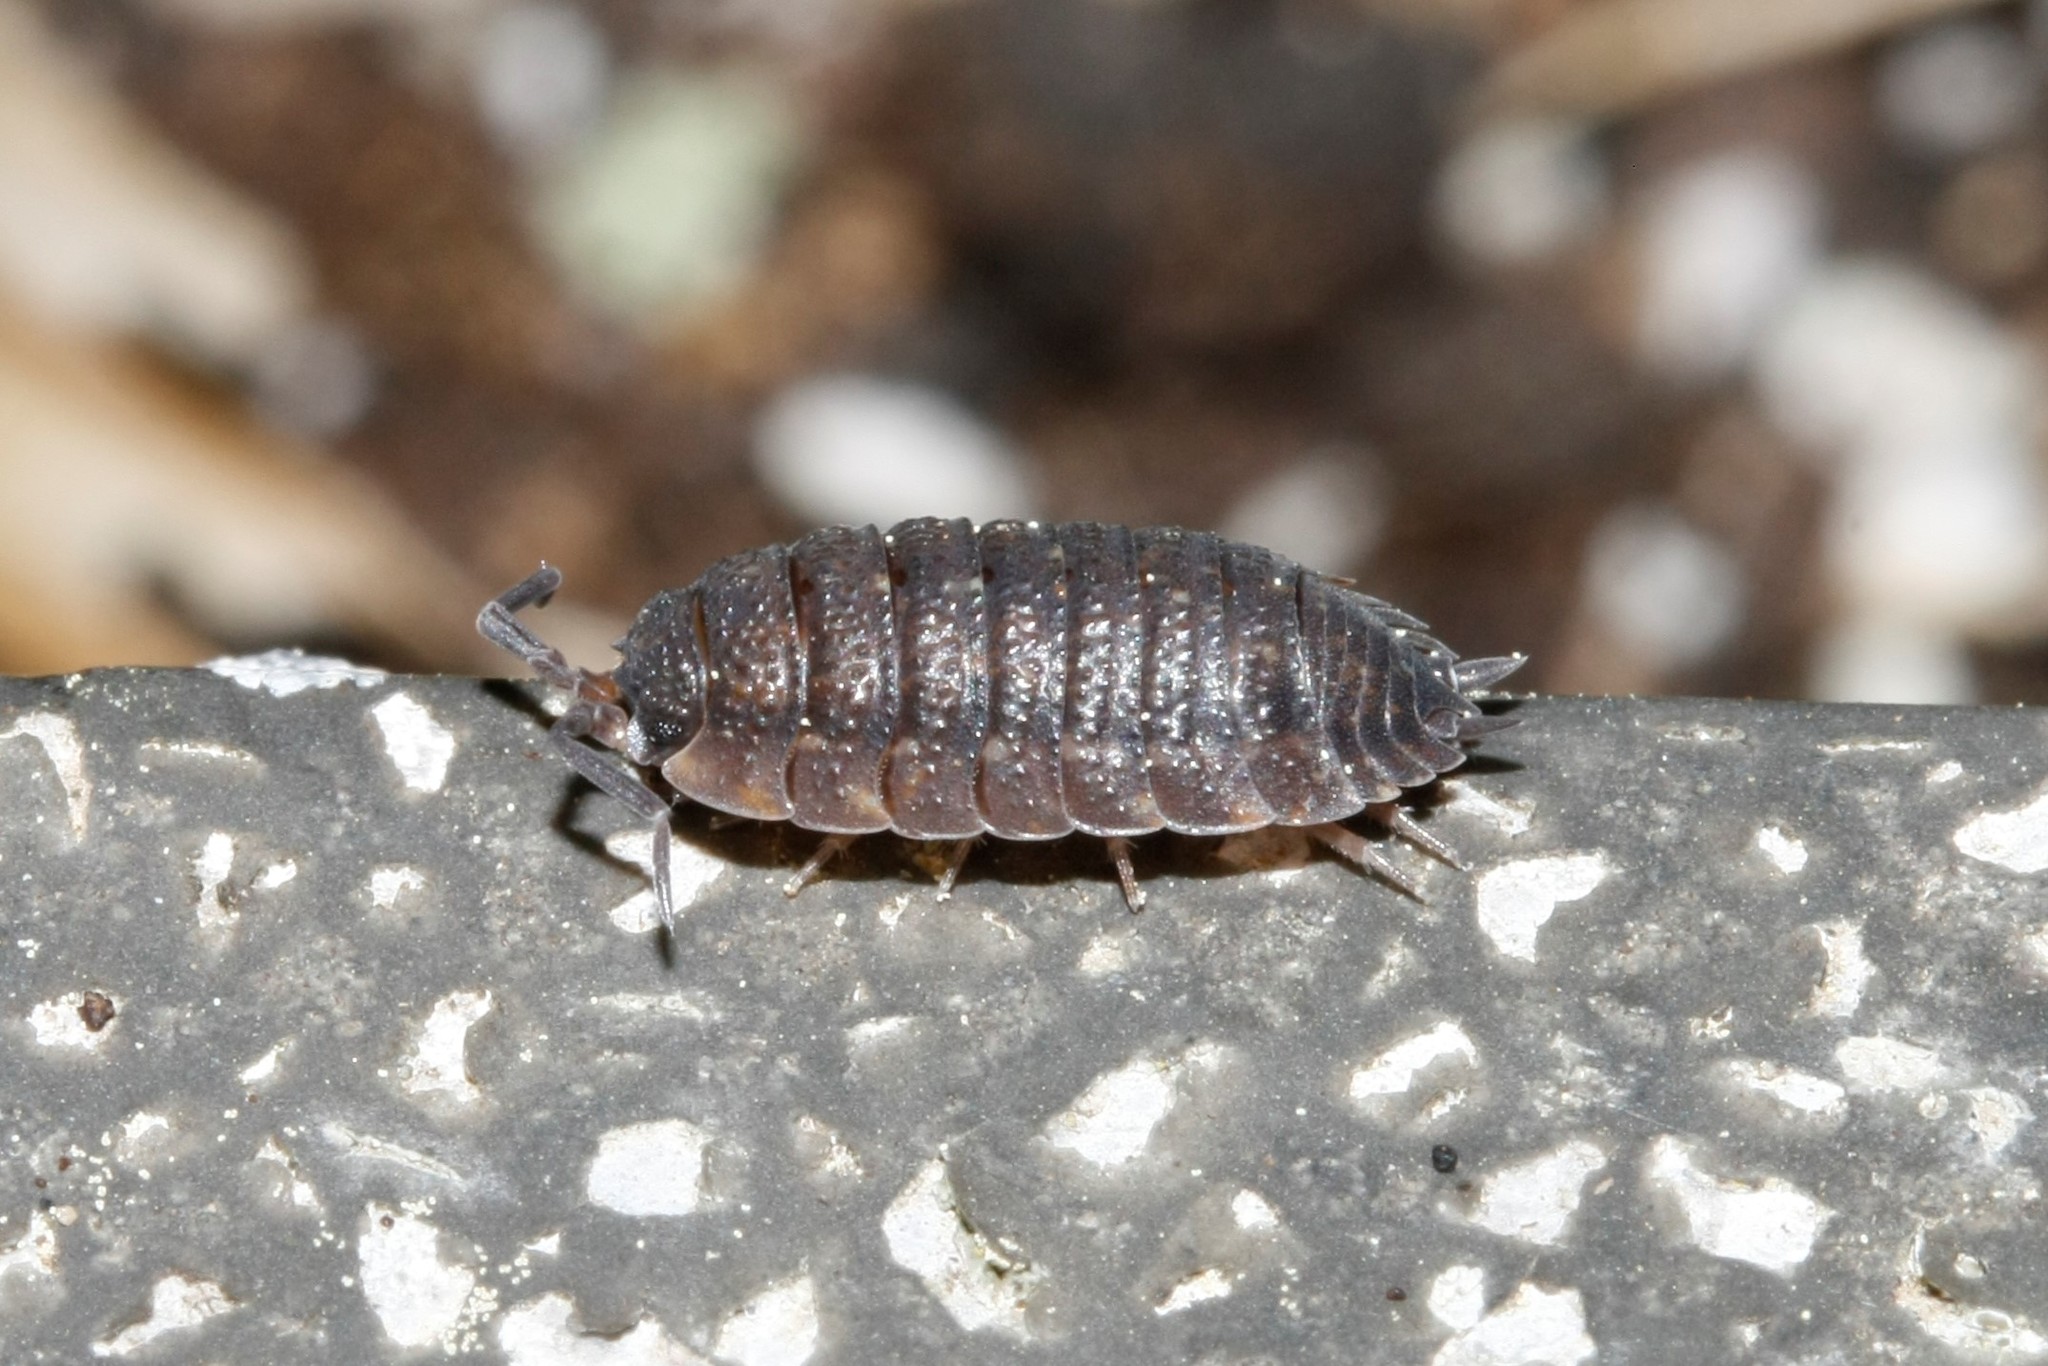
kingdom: Animalia
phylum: Arthropoda
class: Malacostraca
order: Isopoda
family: Porcellionidae
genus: Porcellio
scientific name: Porcellio scaber
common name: Common rough woodlouse
